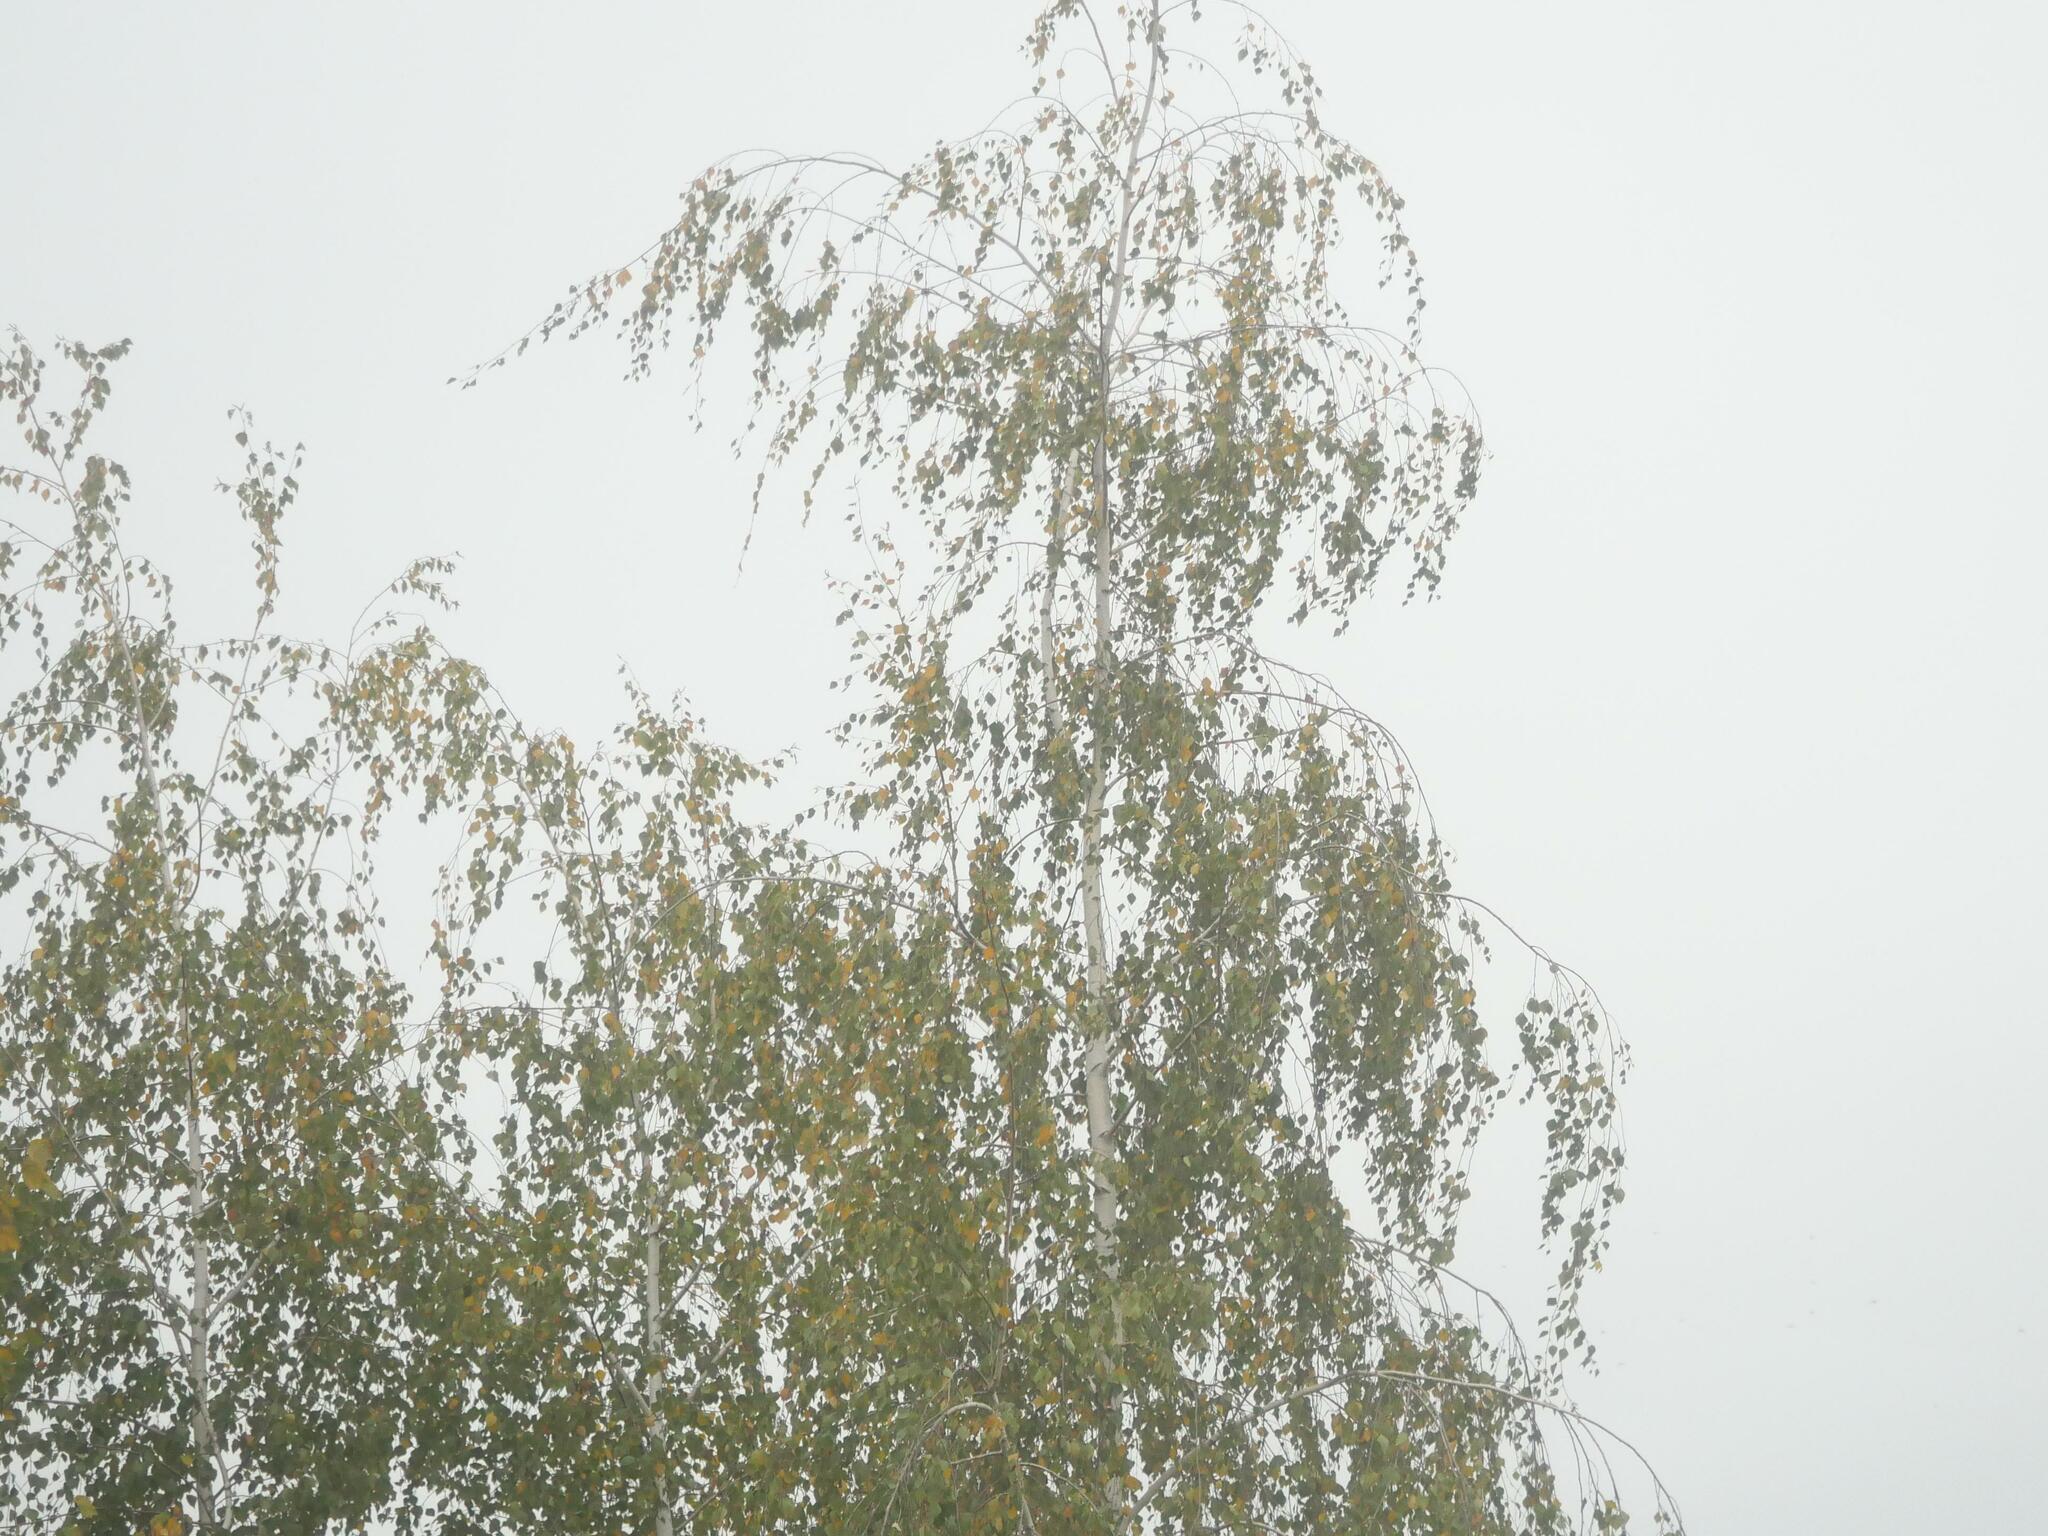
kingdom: Plantae
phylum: Tracheophyta
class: Magnoliopsida
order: Fagales
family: Betulaceae
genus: Betula
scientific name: Betula pendula
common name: Silver birch
